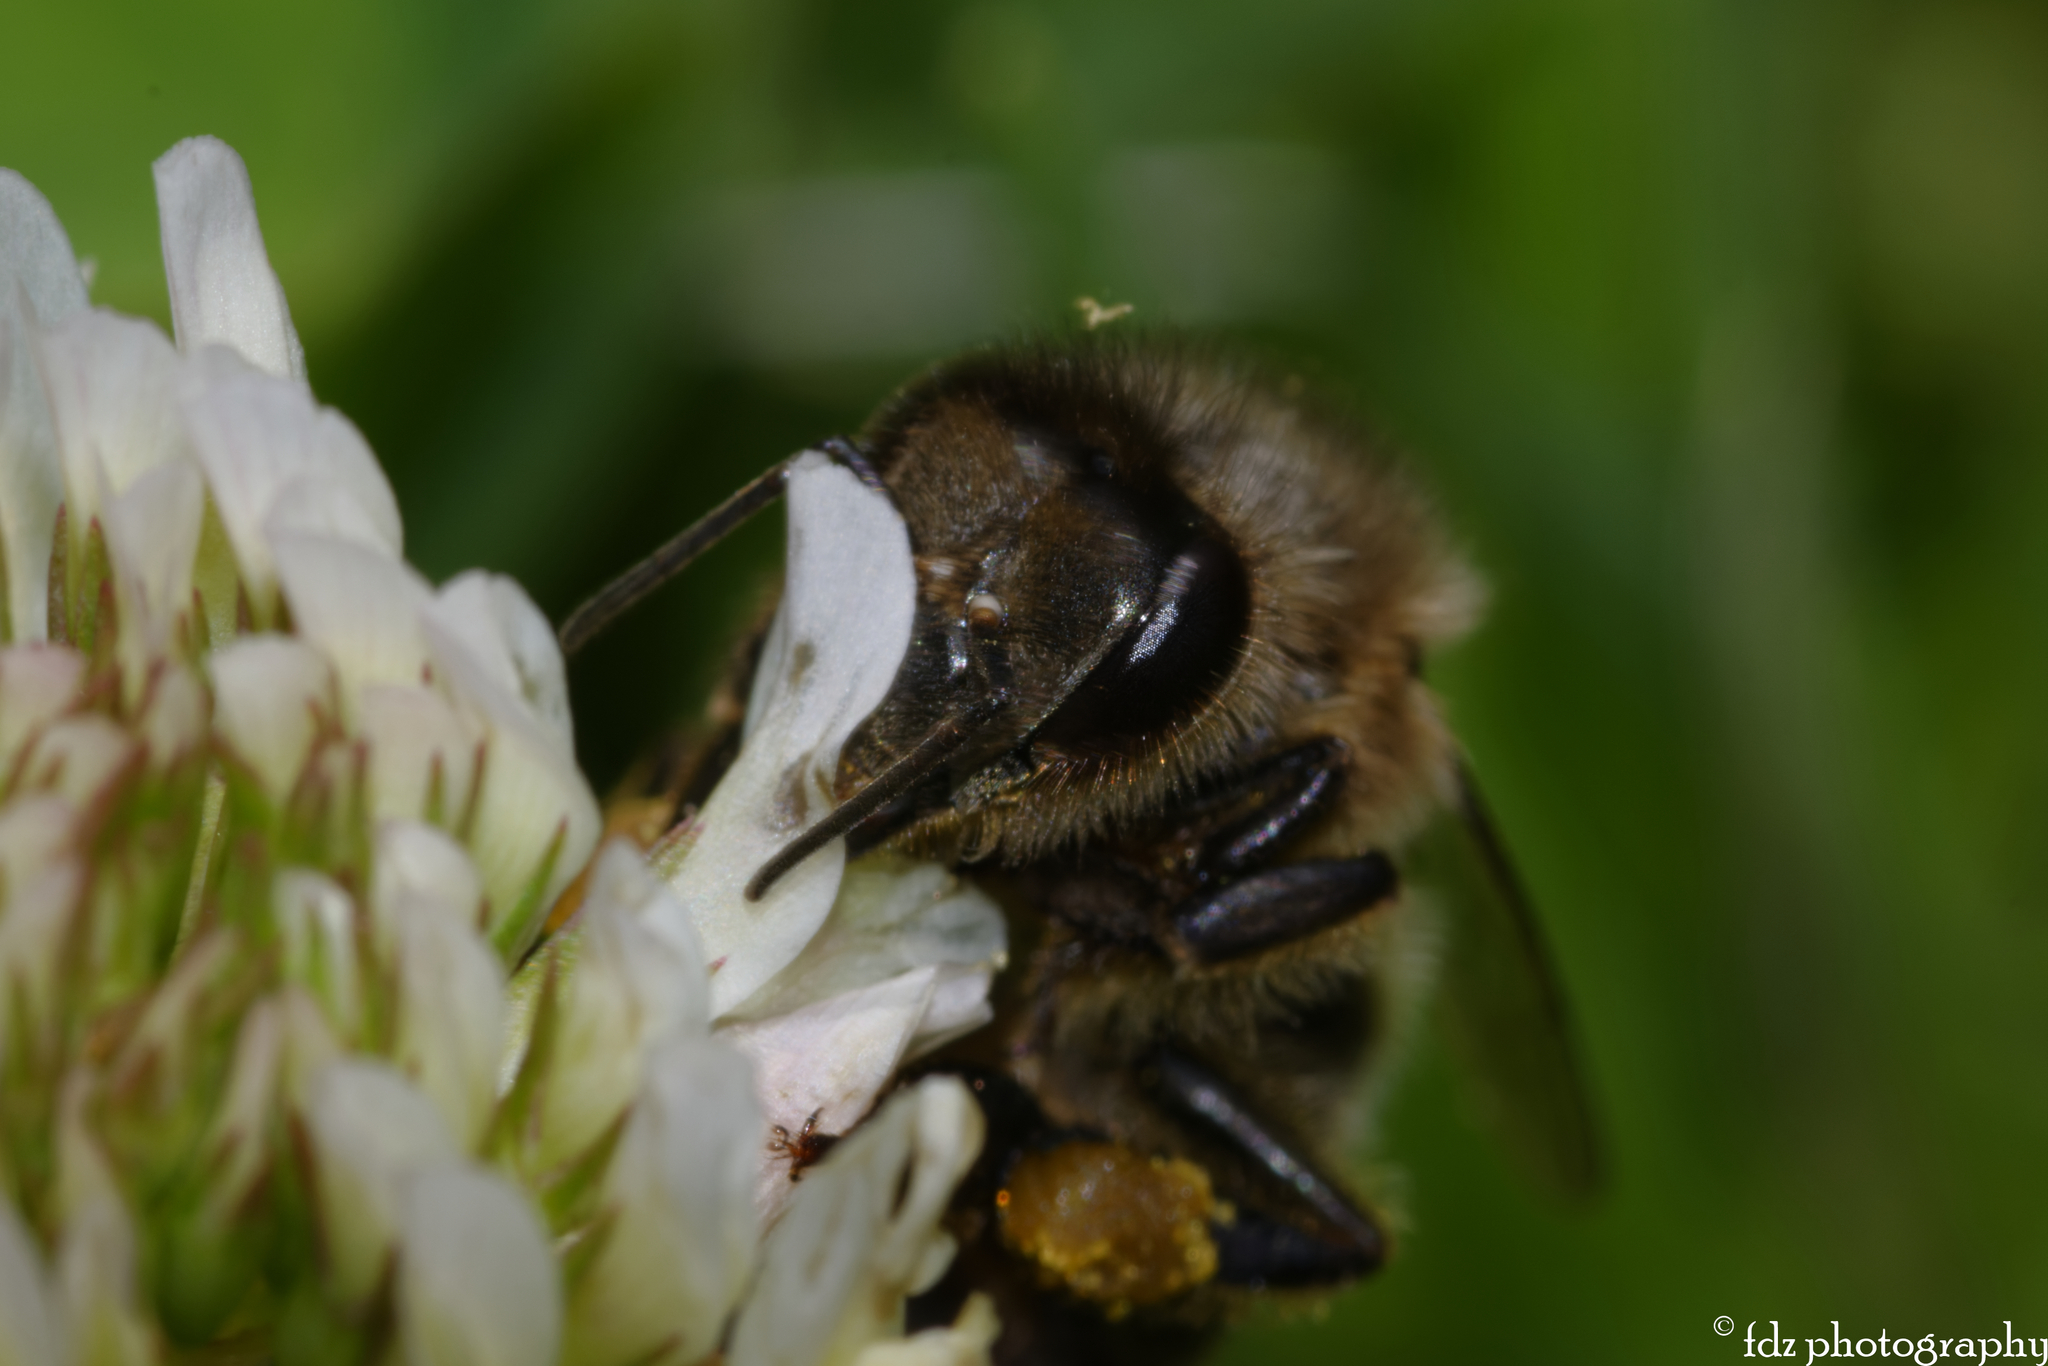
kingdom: Animalia
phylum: Arthropoda
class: Insecta
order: Hymenoptera
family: Apidae
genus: Apis
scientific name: Apis mellifera
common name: Honey bee
